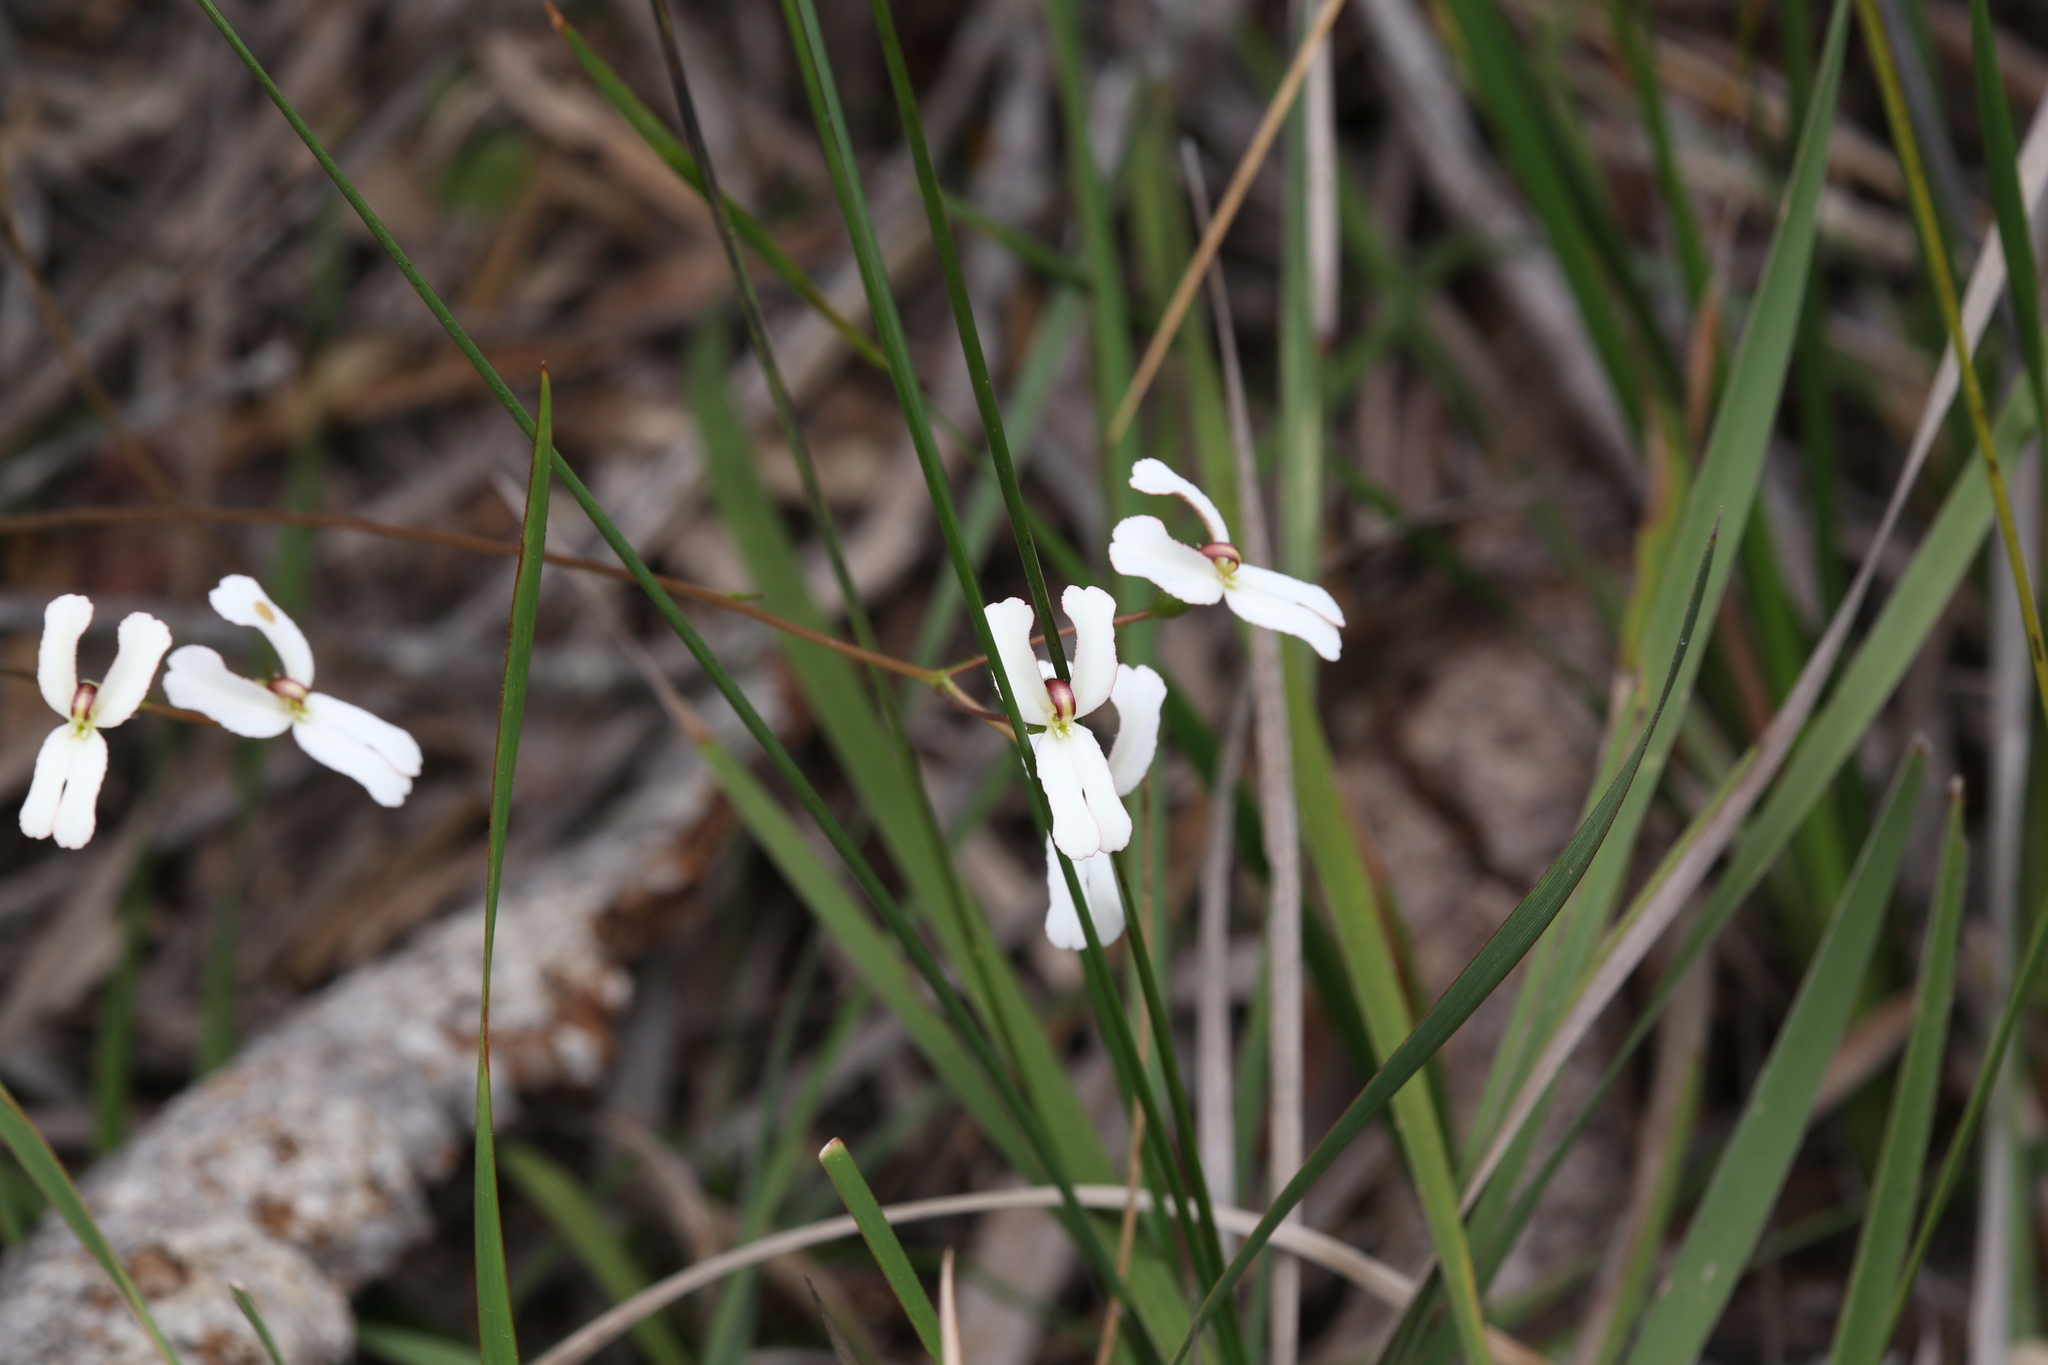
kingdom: Plantae
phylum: Tracheophyta
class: Magnoliopsida
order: Asterales
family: Stylidiaceae
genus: Stylidium
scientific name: Stylidium schoenoides
